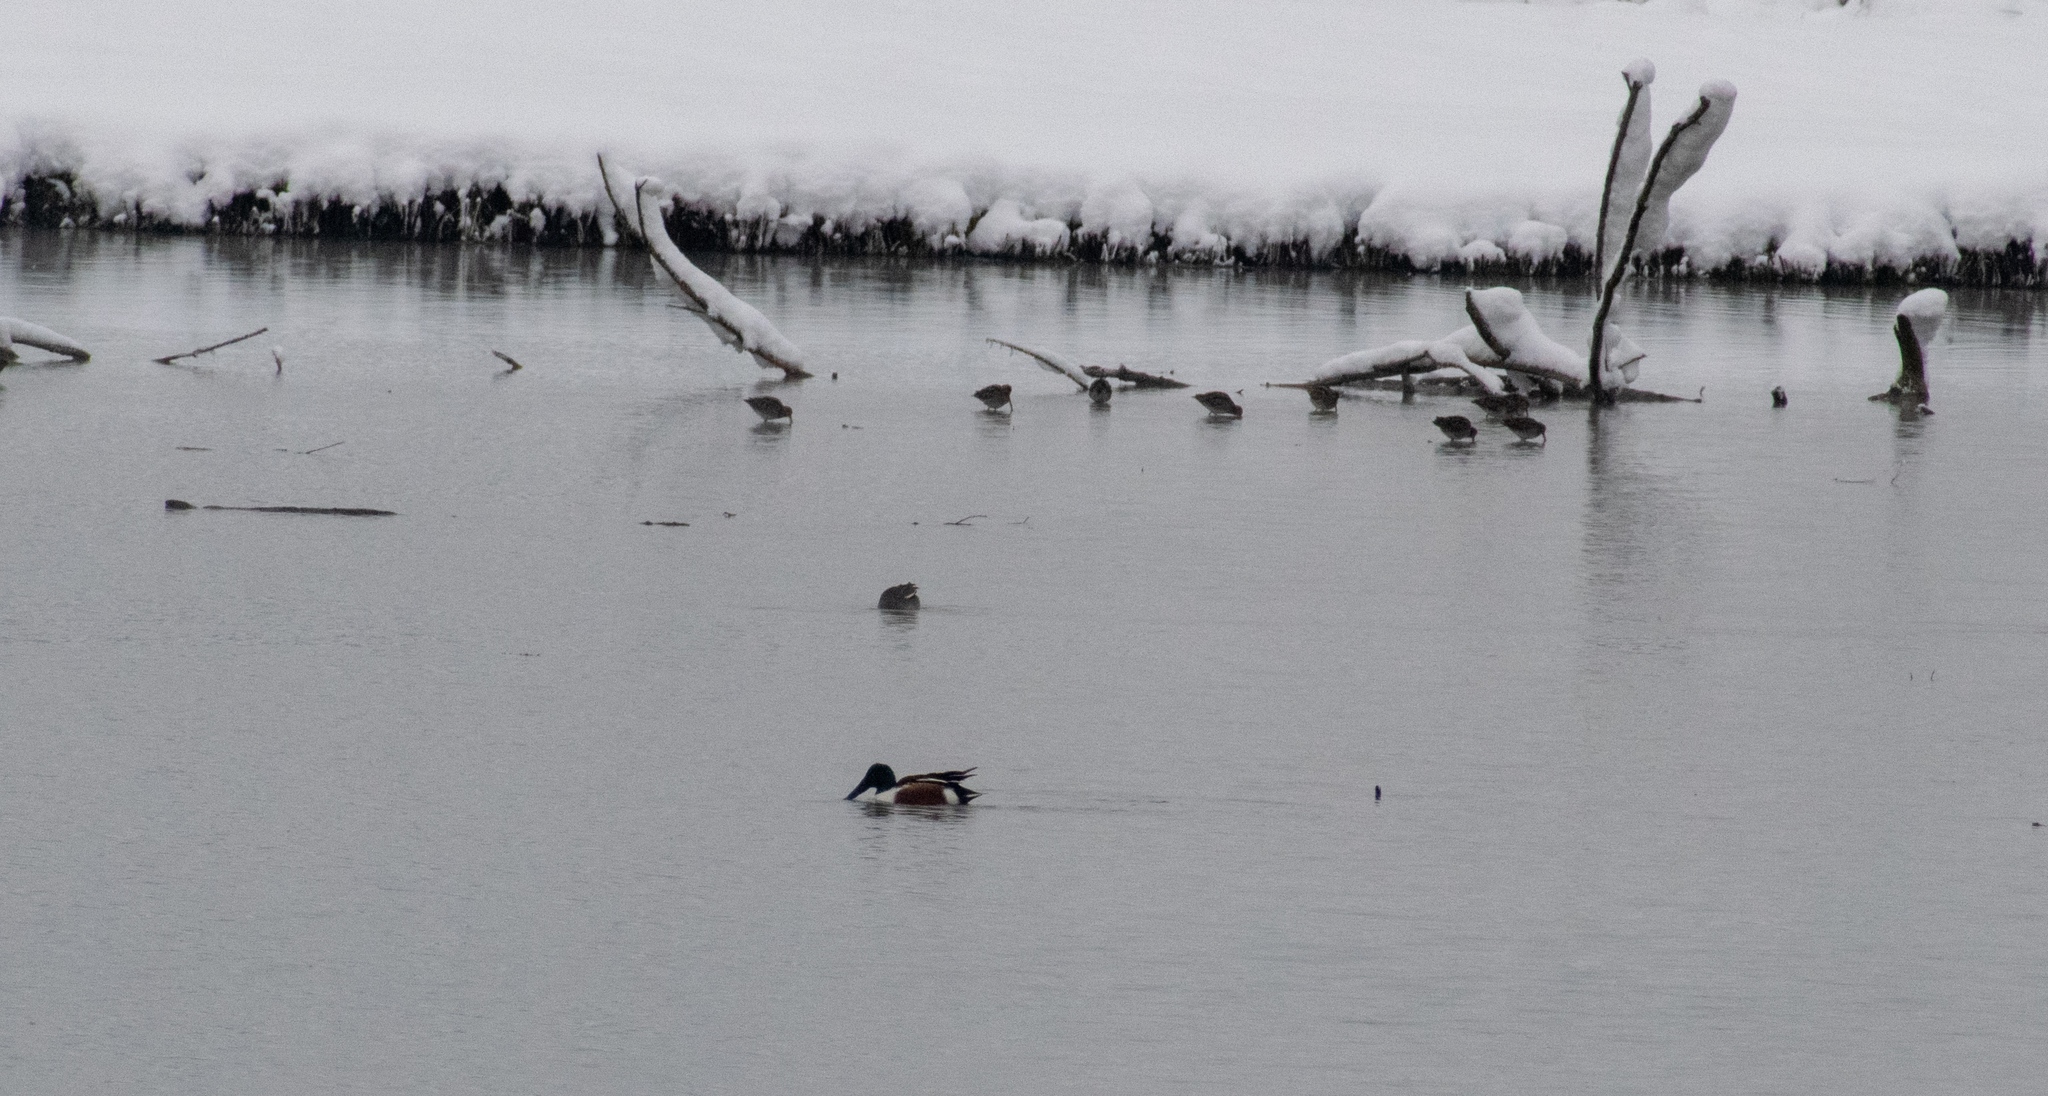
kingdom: Animalia
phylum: Chordata
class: Aves
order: Anseriformes
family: Anatidae
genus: Spatula
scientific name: Spatula clypeata
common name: Northern shoveler
